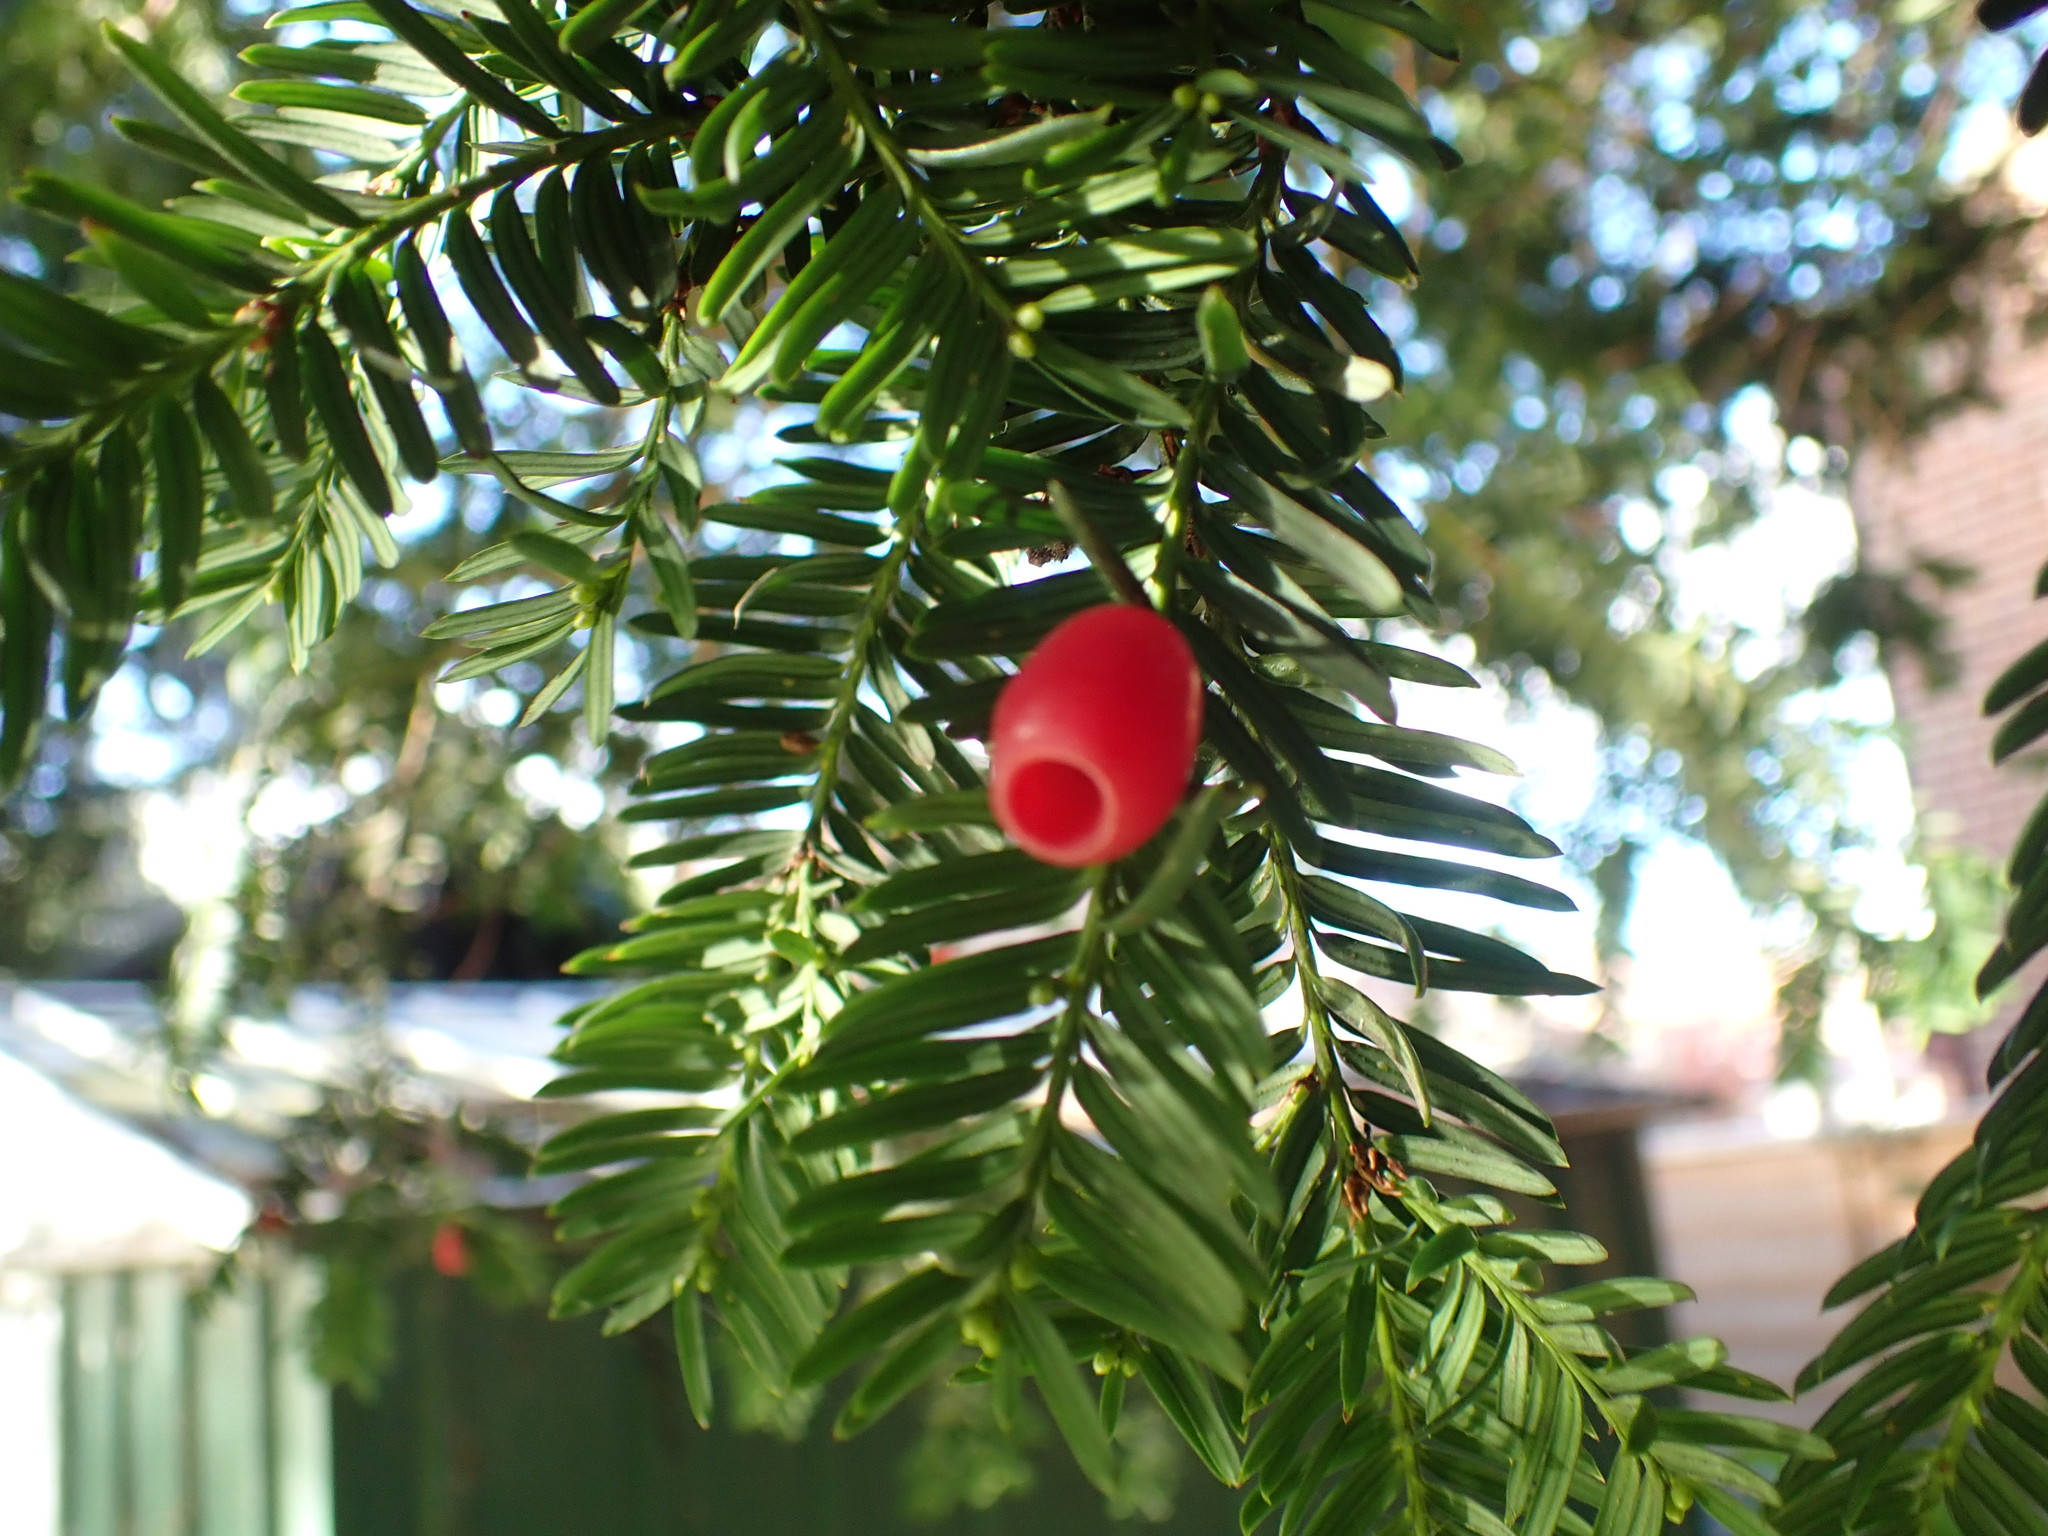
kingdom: Plantae
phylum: Tracheophyta
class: Pinopsida
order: Pinales
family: Taxaceae
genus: Taxus
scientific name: Taxus baccata
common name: Yew
